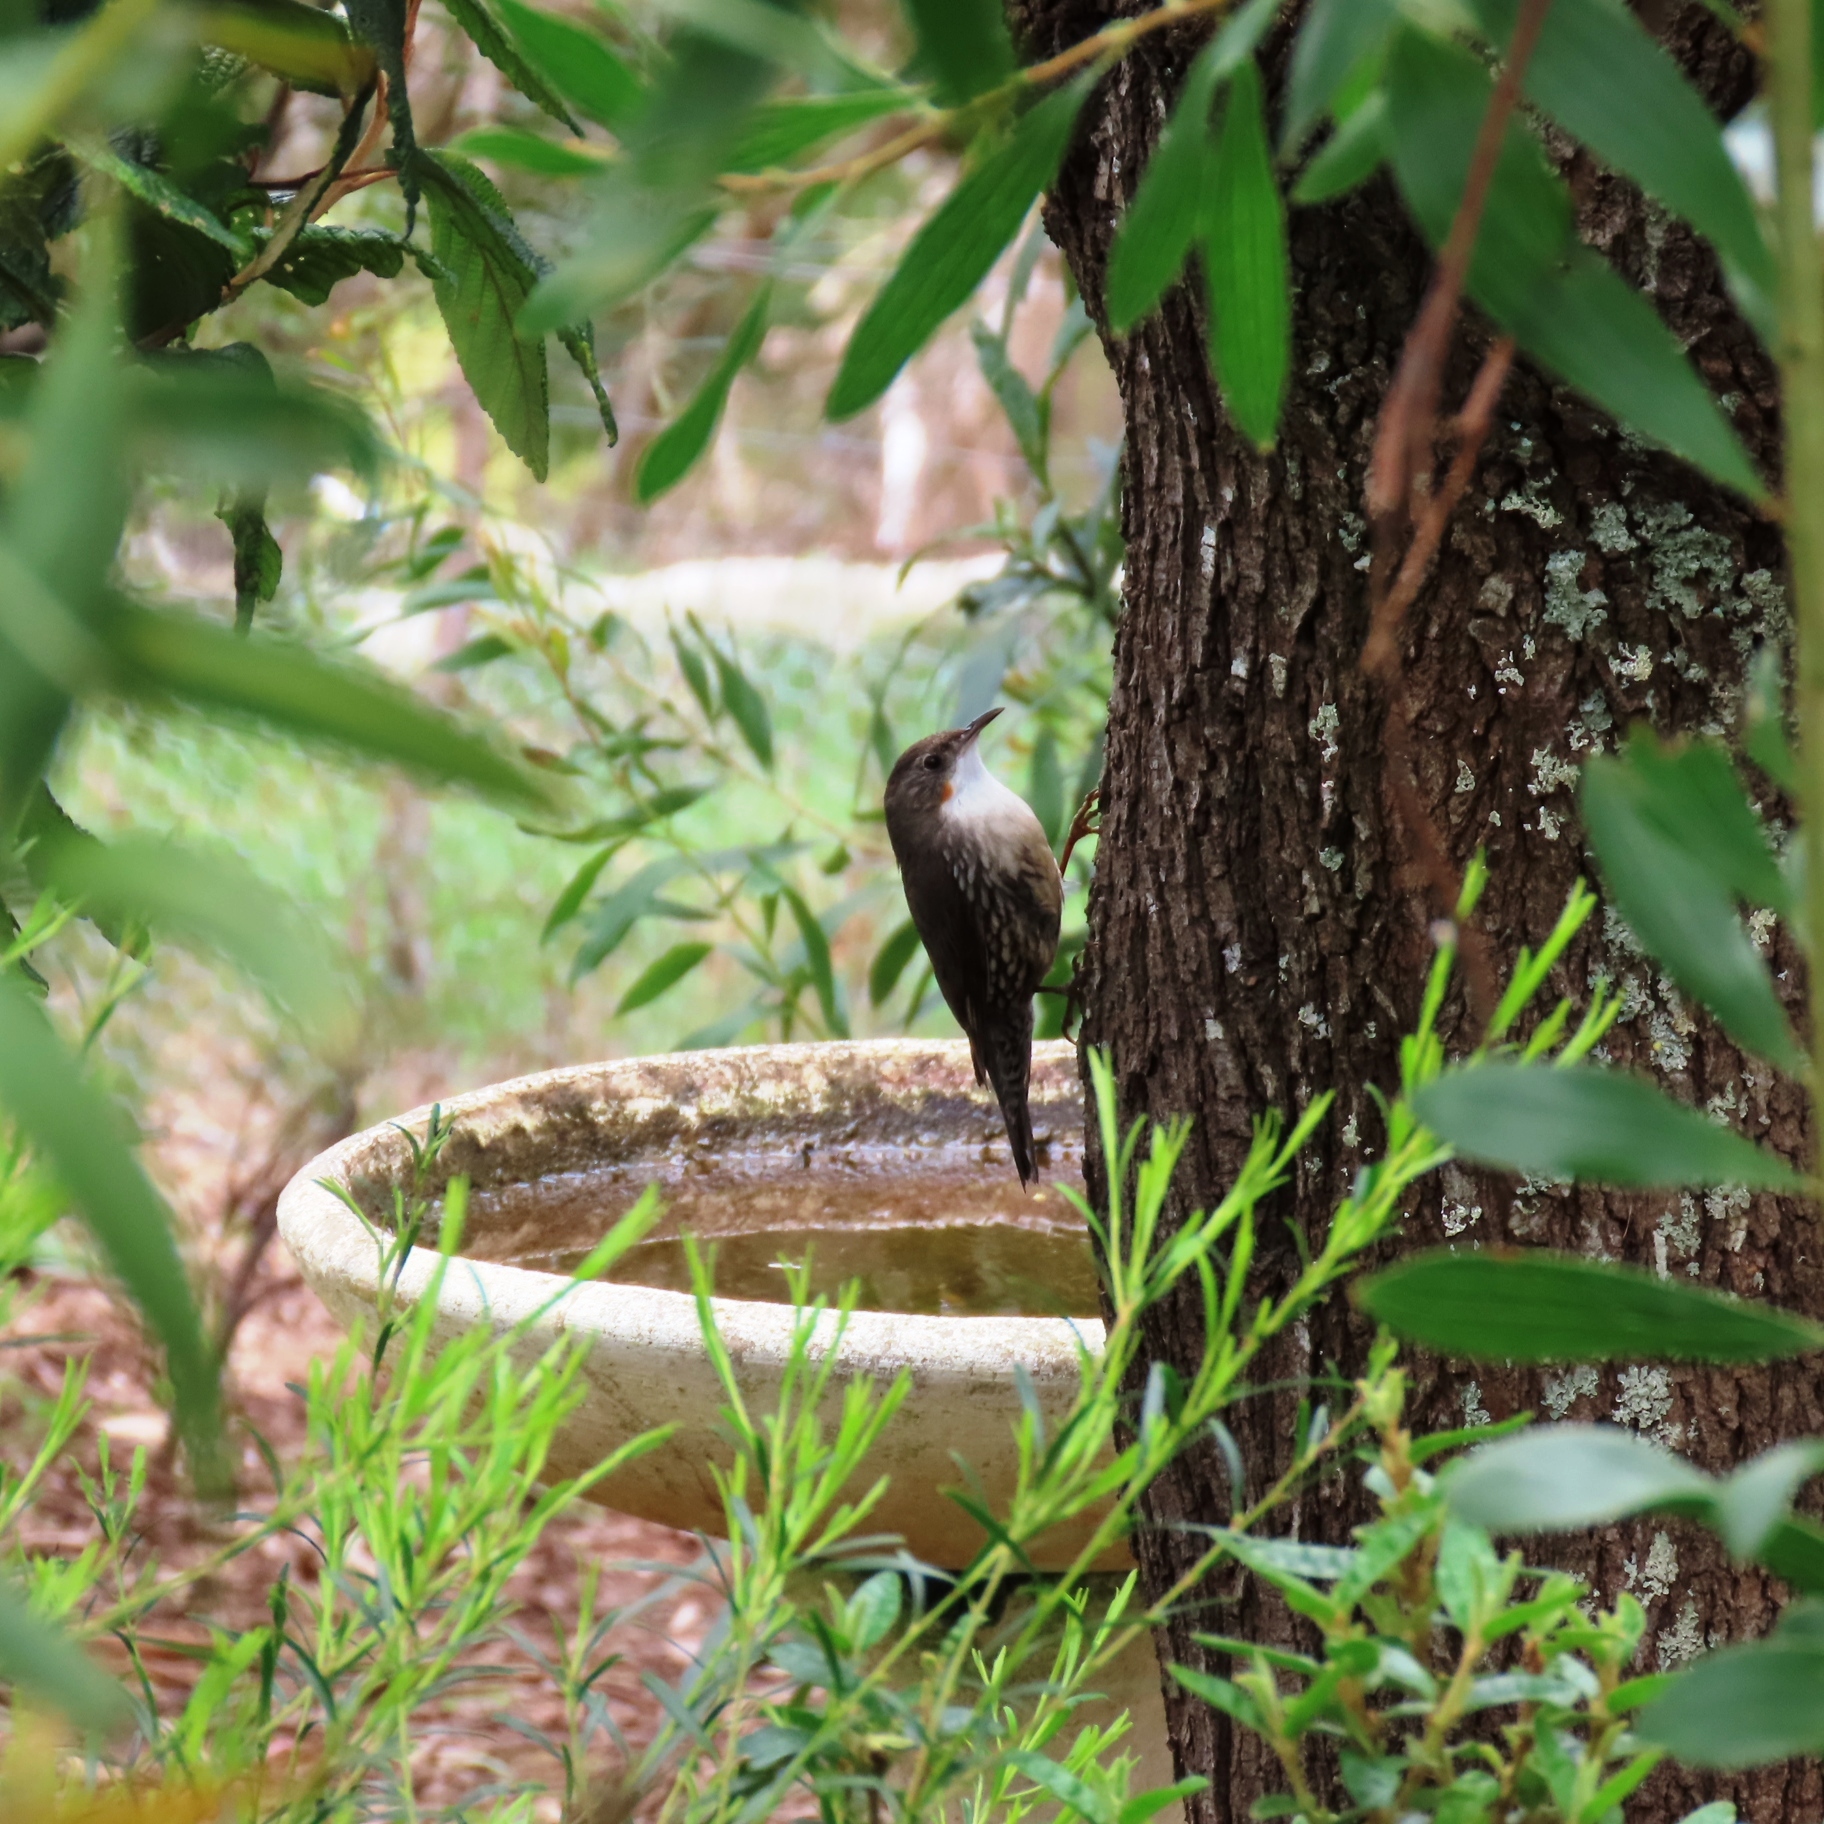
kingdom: Animalia
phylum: Chordata
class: Aves
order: Passeriformes
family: Climacteridae
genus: Cormobates
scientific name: Cormobates leucophaea
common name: White-throated treecreeper
